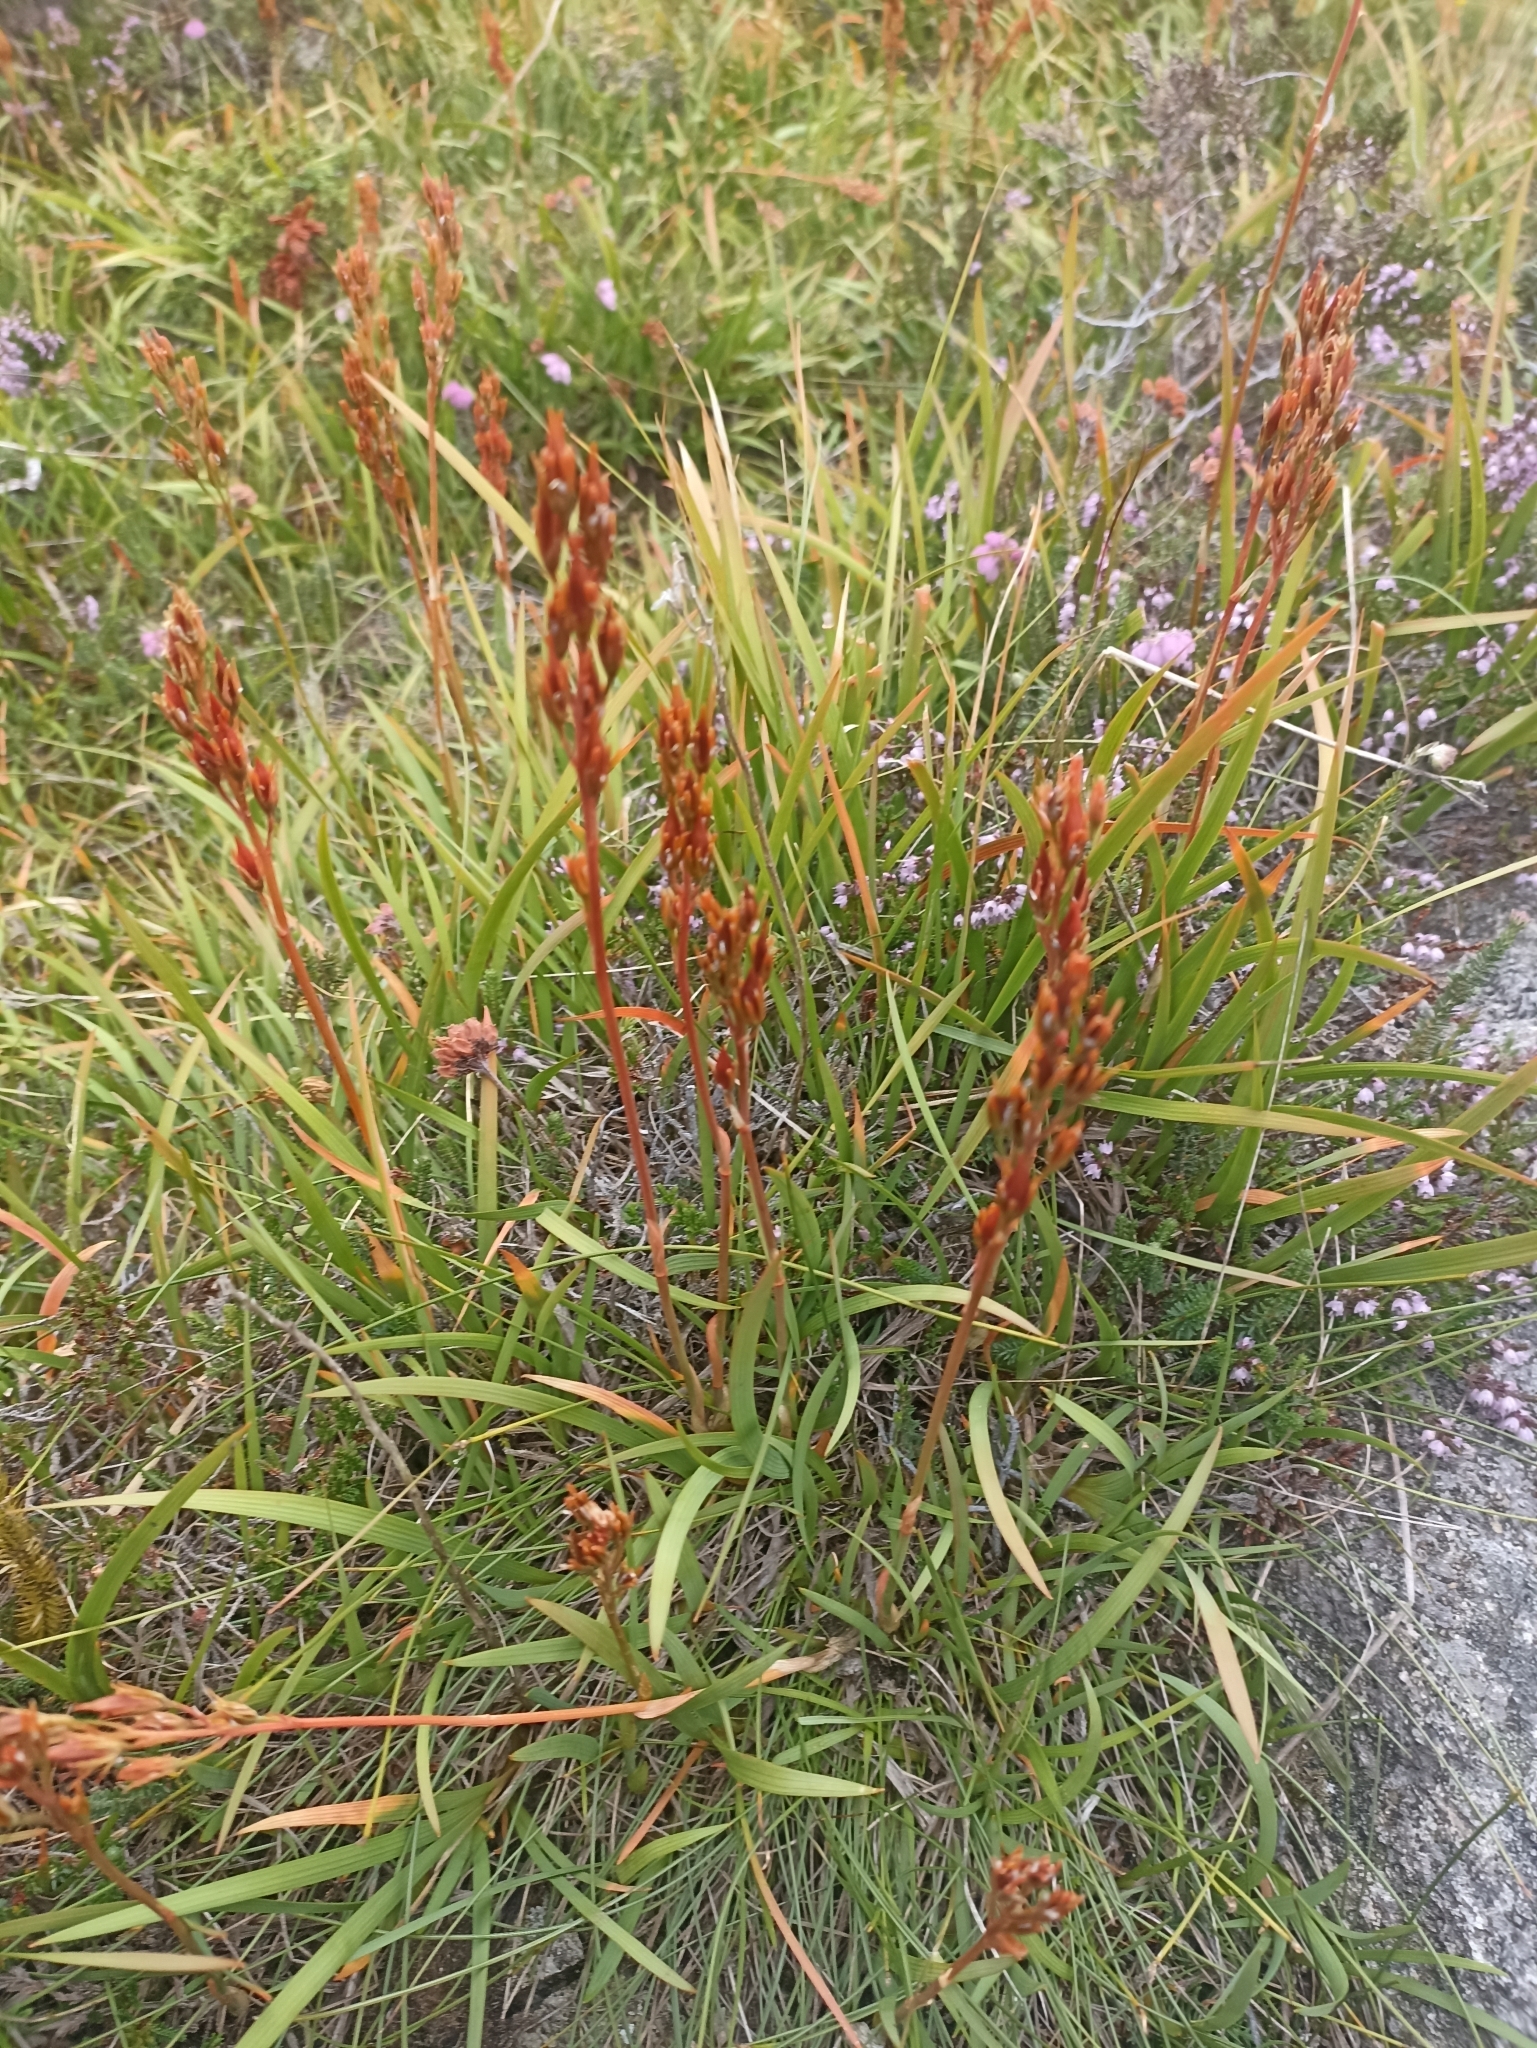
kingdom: Plantae
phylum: Tracheophyta
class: Liliopsida
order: Dioscoreales
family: Nartheciaceae
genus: Narthecium
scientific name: Narthecium ossifragum
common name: Bog asphodel
